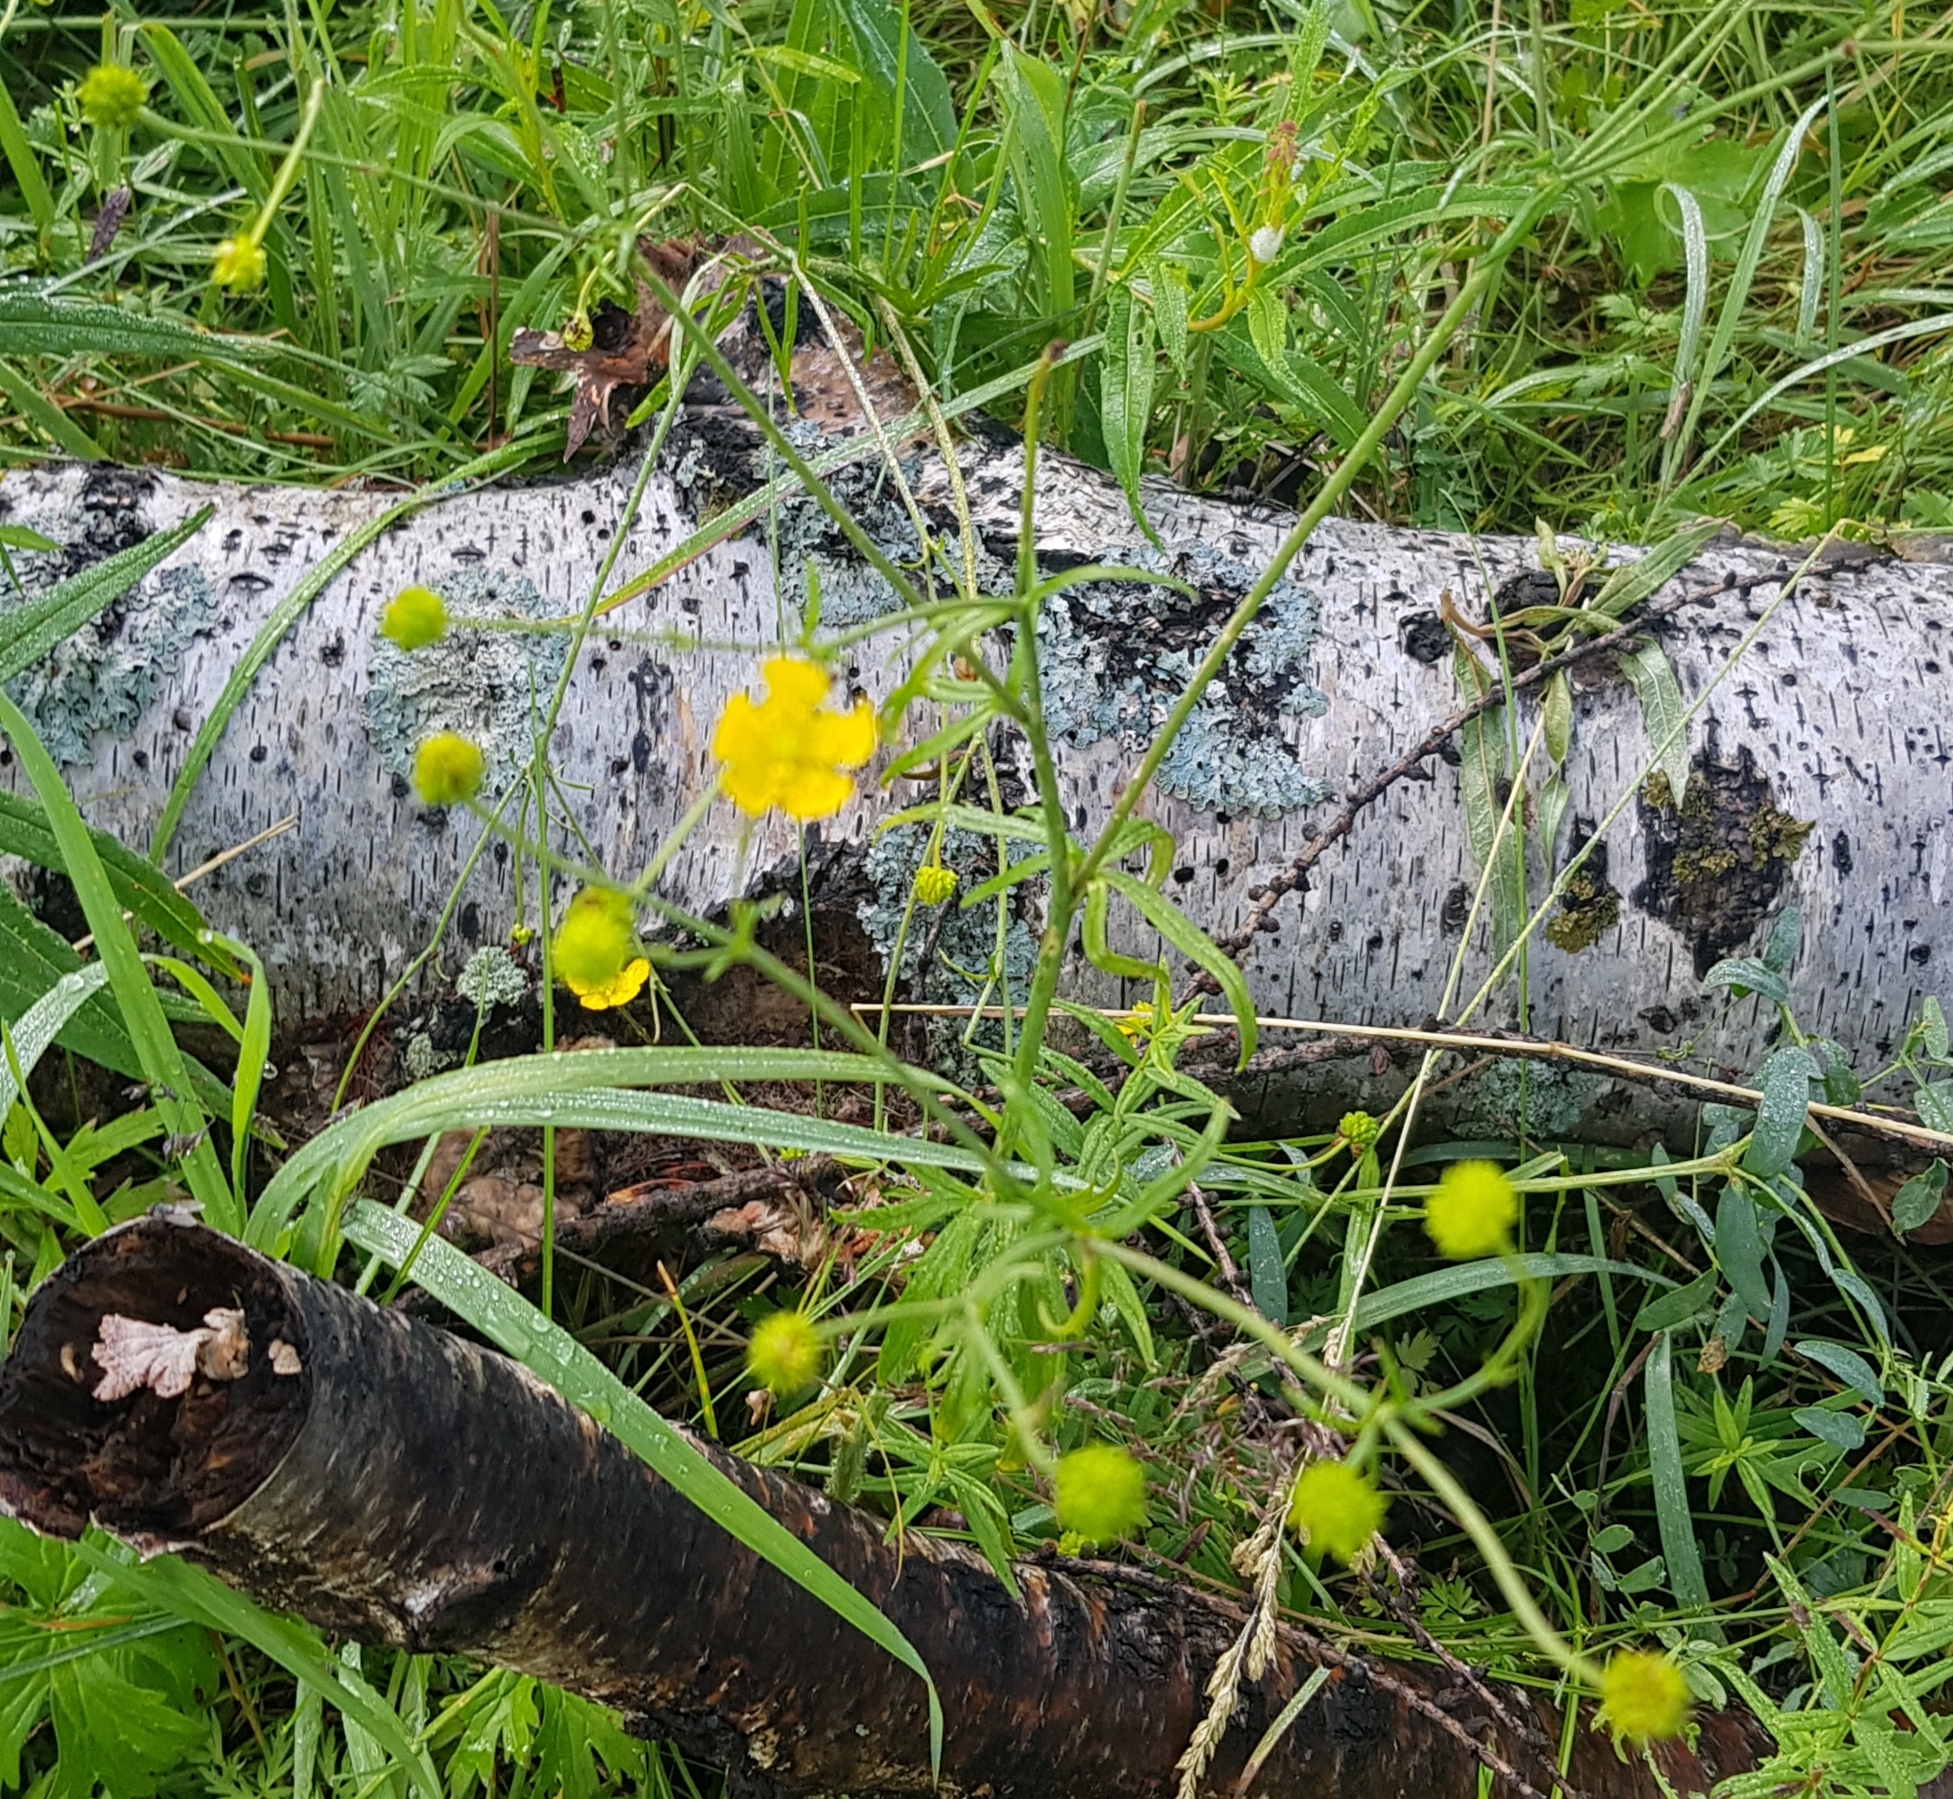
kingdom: Plantae
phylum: Tracheophyta
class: Magnoliopsida
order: Ranunculales
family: Ranunculaceae
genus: Ranunculus
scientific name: Ranunculus polyanthemos
